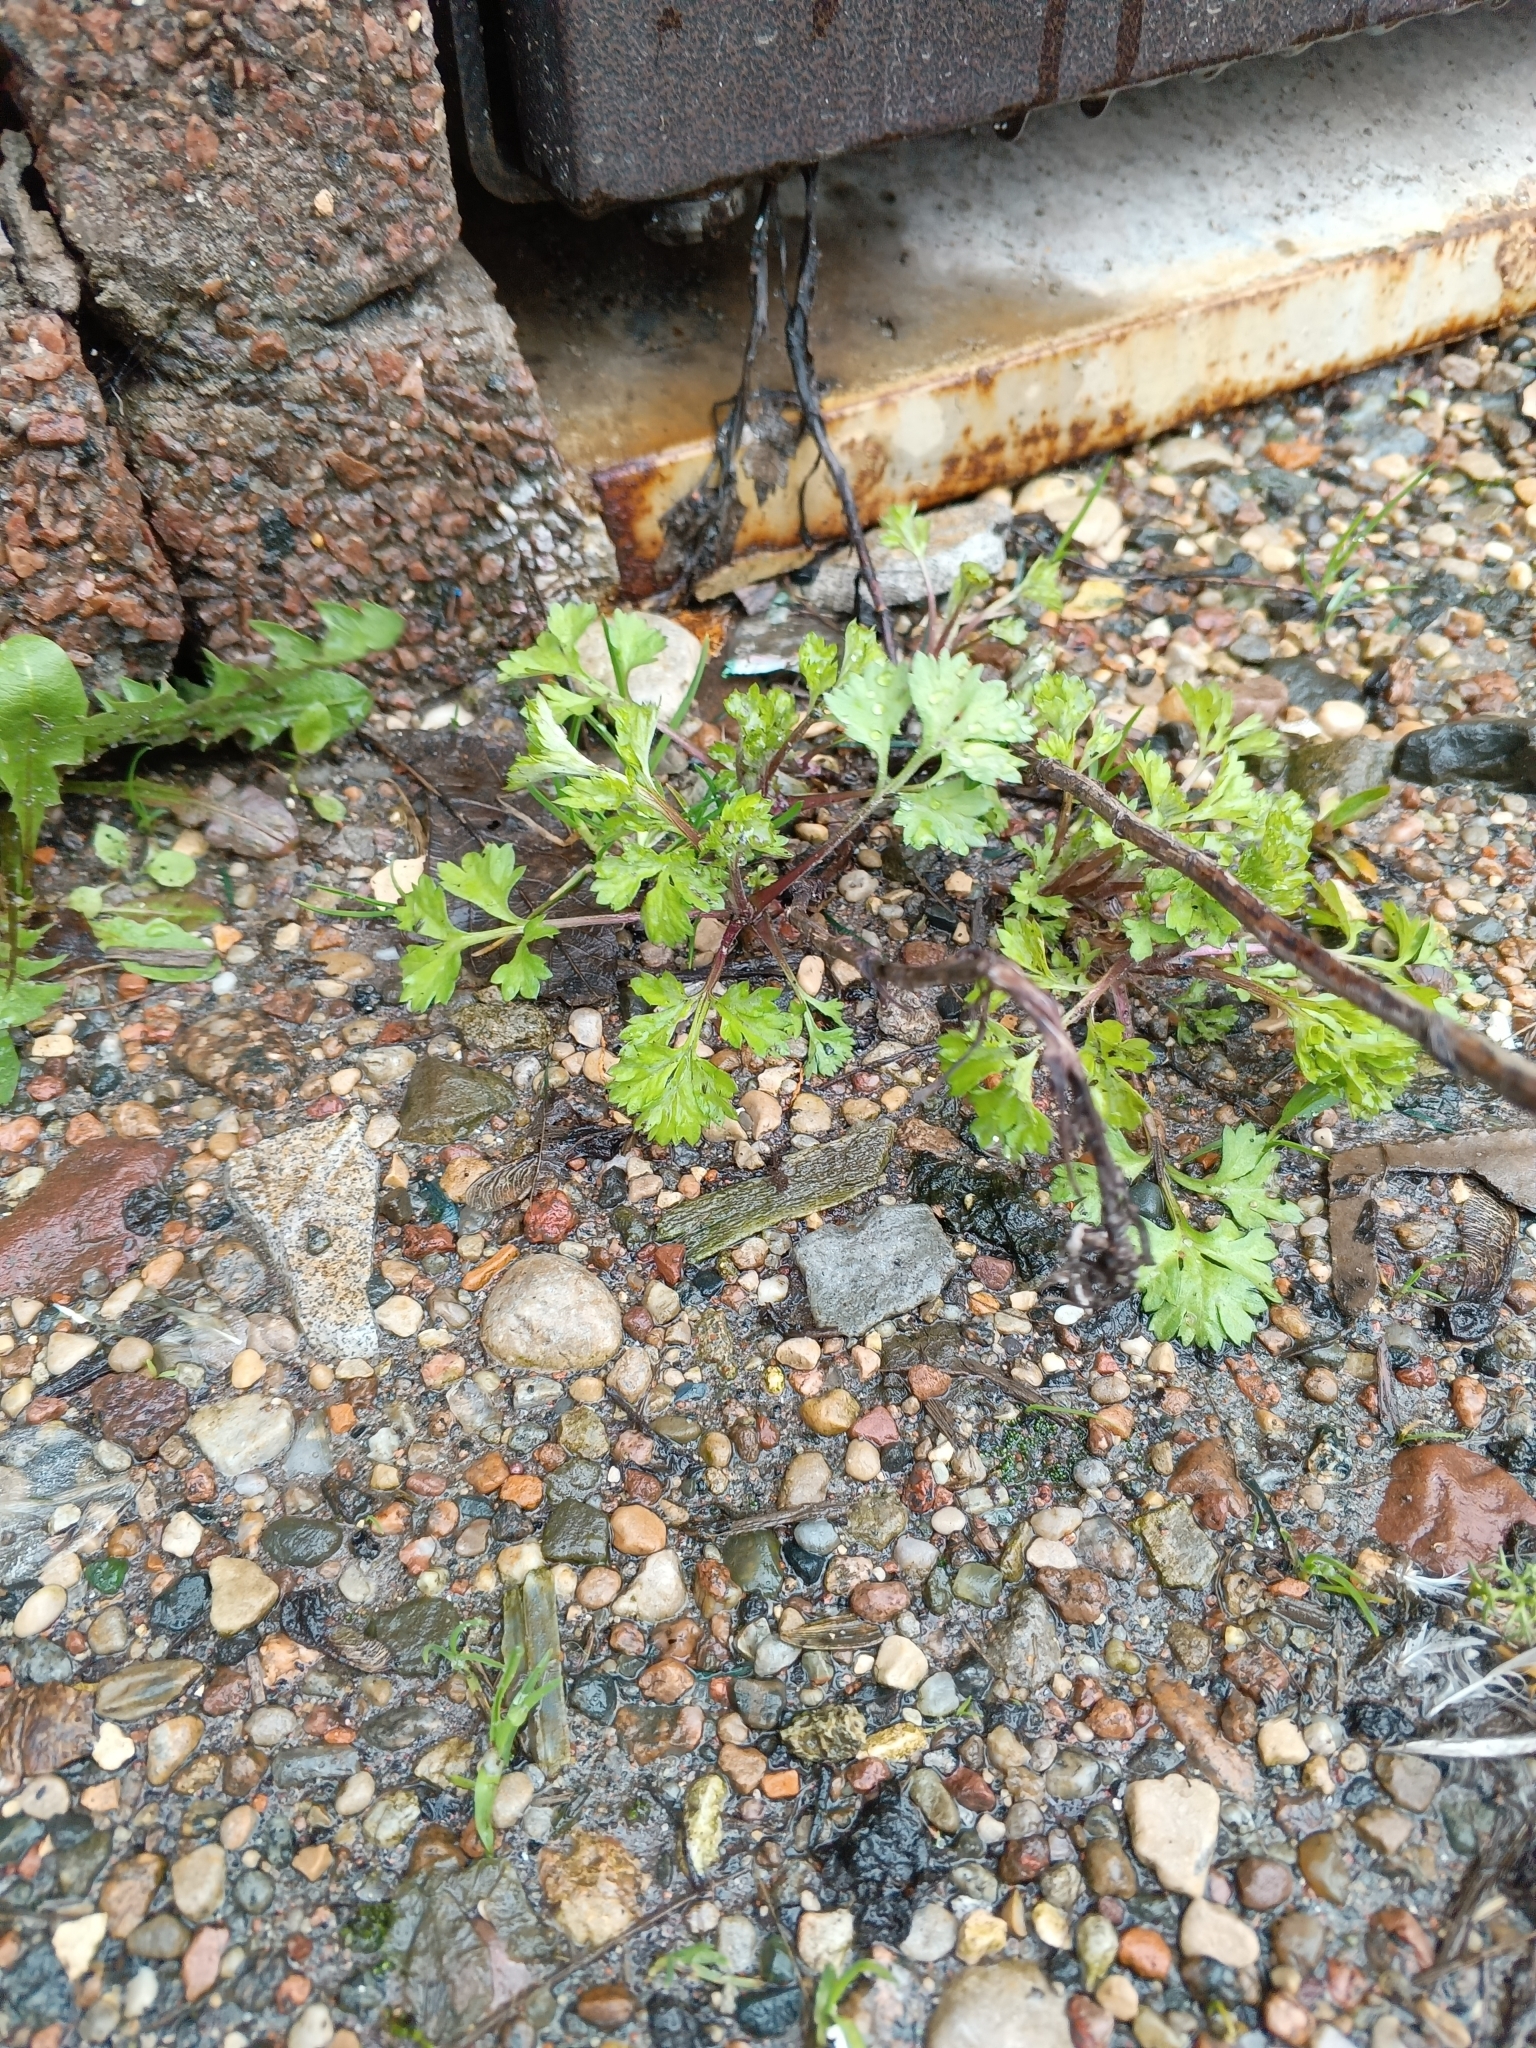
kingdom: Plantae
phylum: Tracheophyta
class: Magnoliopsida
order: Asterales
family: Asteraceae
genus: Artemisia
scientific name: Artemisia vulgaris
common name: Mugwort
